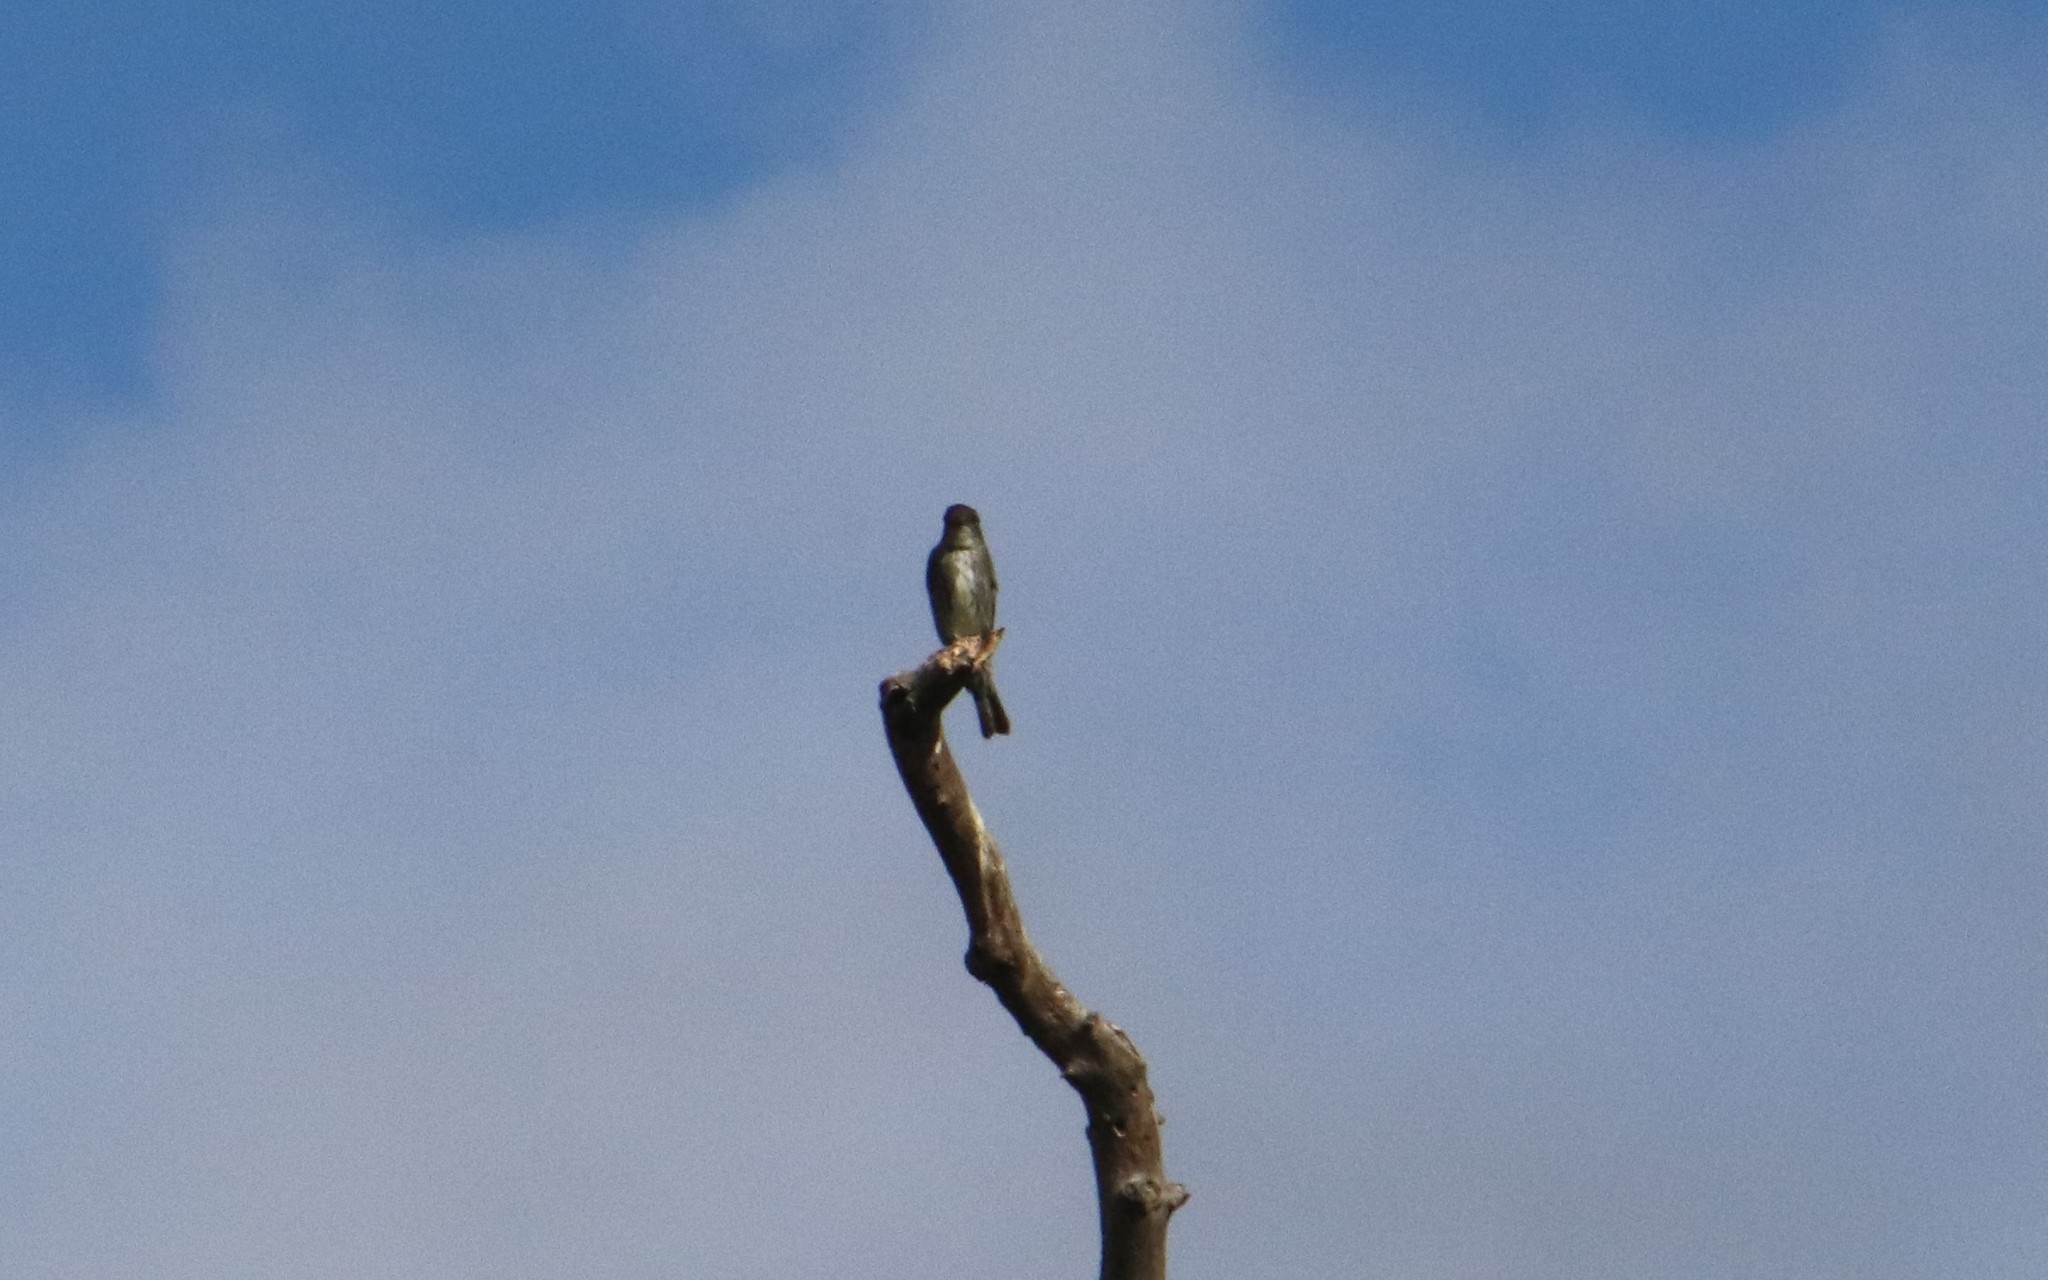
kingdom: Animalia
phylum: Chordata
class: Aves
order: Passeriformes
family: Tyrannidae
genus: Contopus
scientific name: Contopus cooperi
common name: Olive-sided flycatcher
